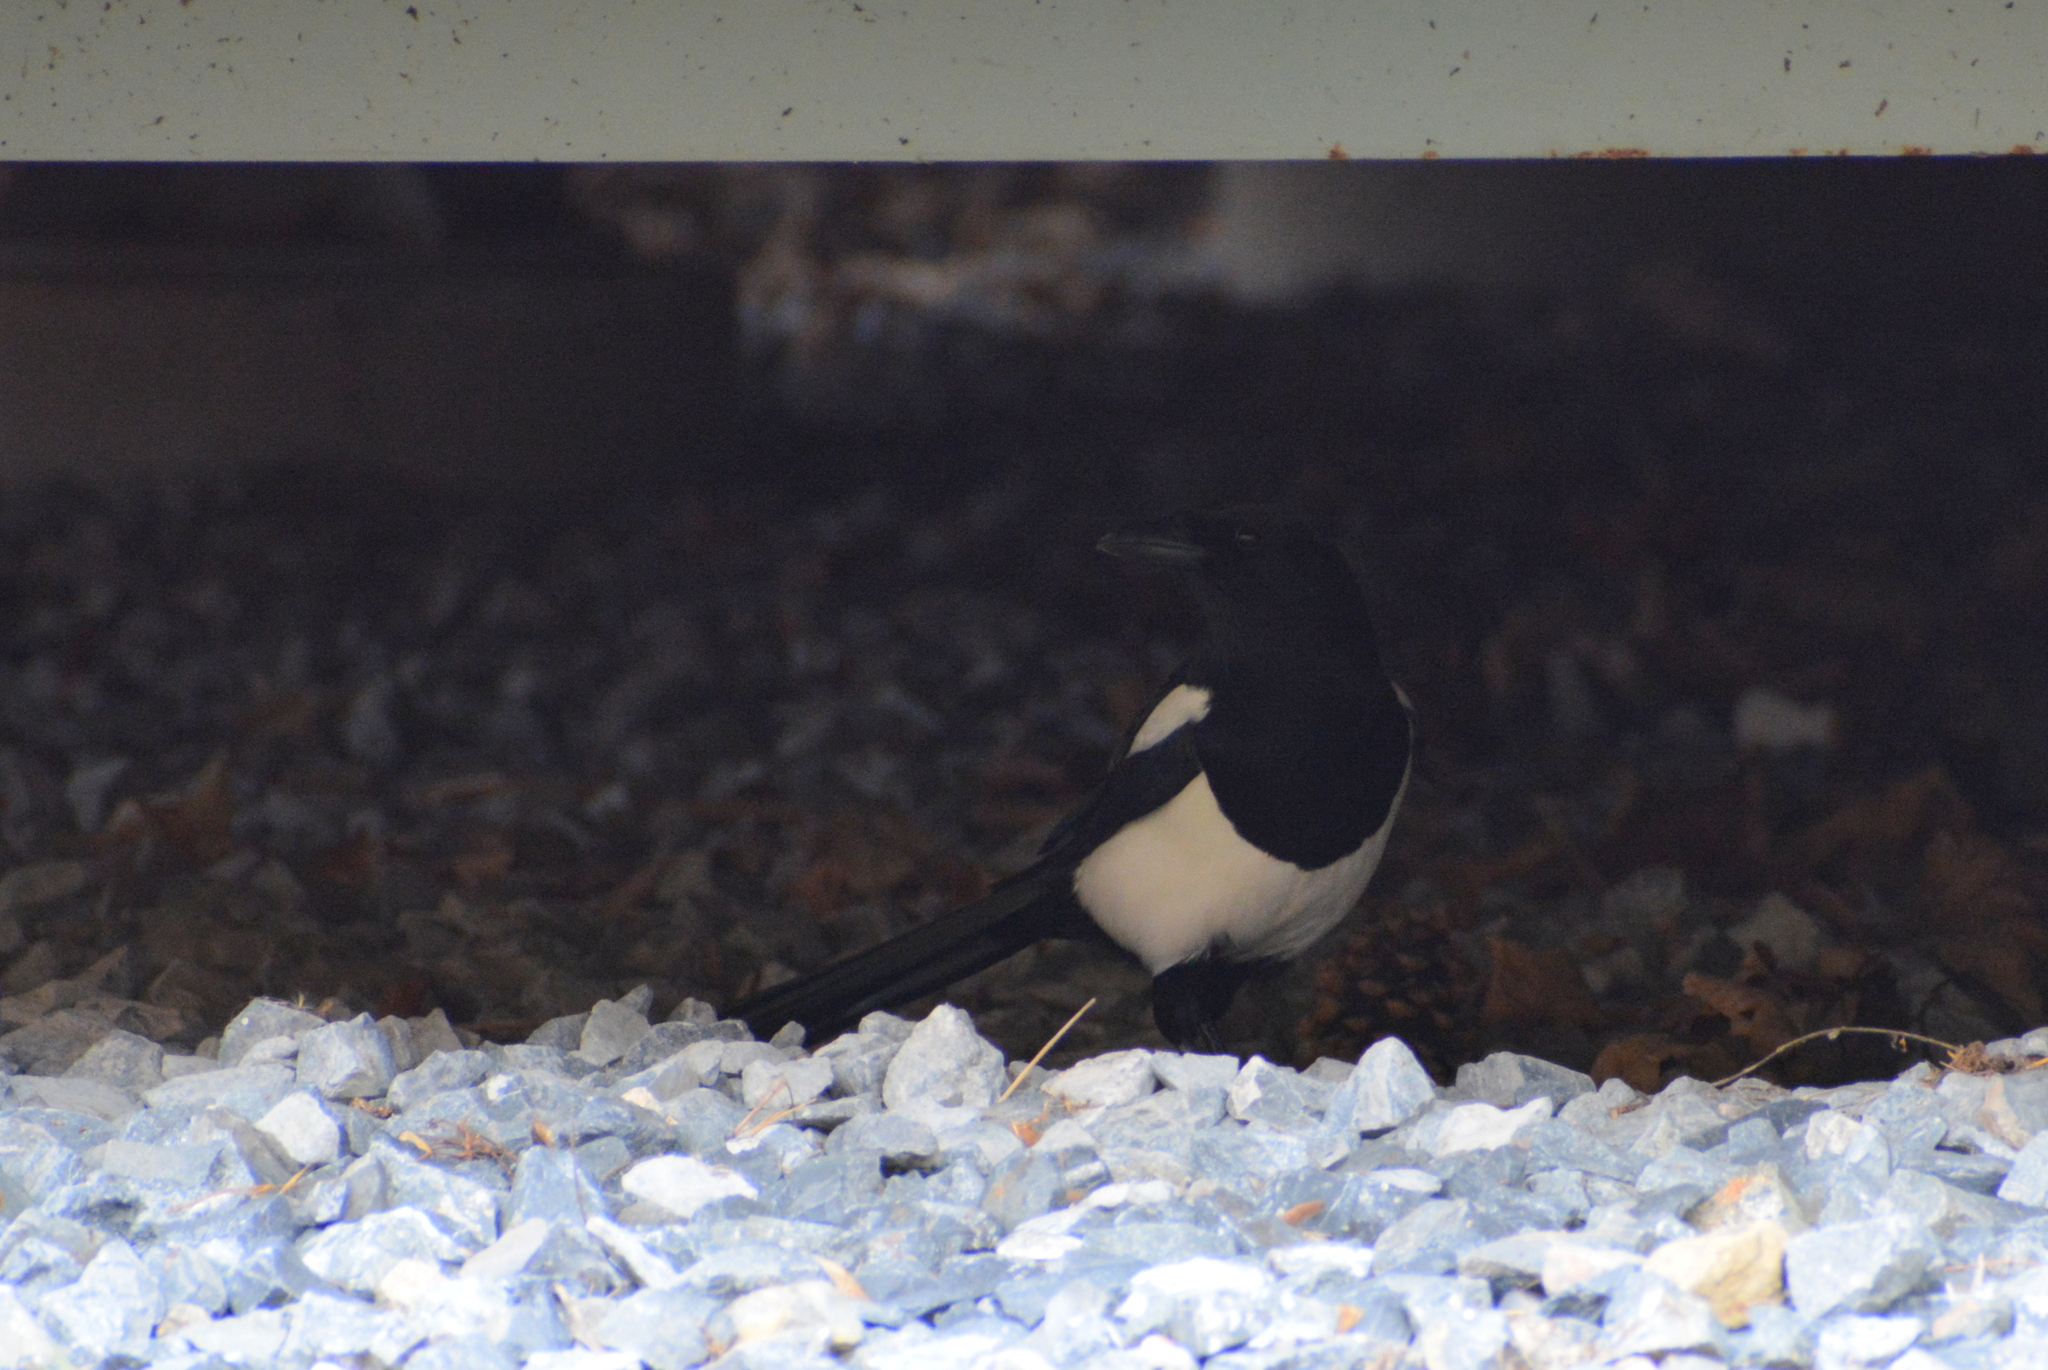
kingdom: Animalia
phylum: Chordata
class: Aves
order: Passeriformes
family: Corvidae
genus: Pica
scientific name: Pica pica
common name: Eurasian magpie
